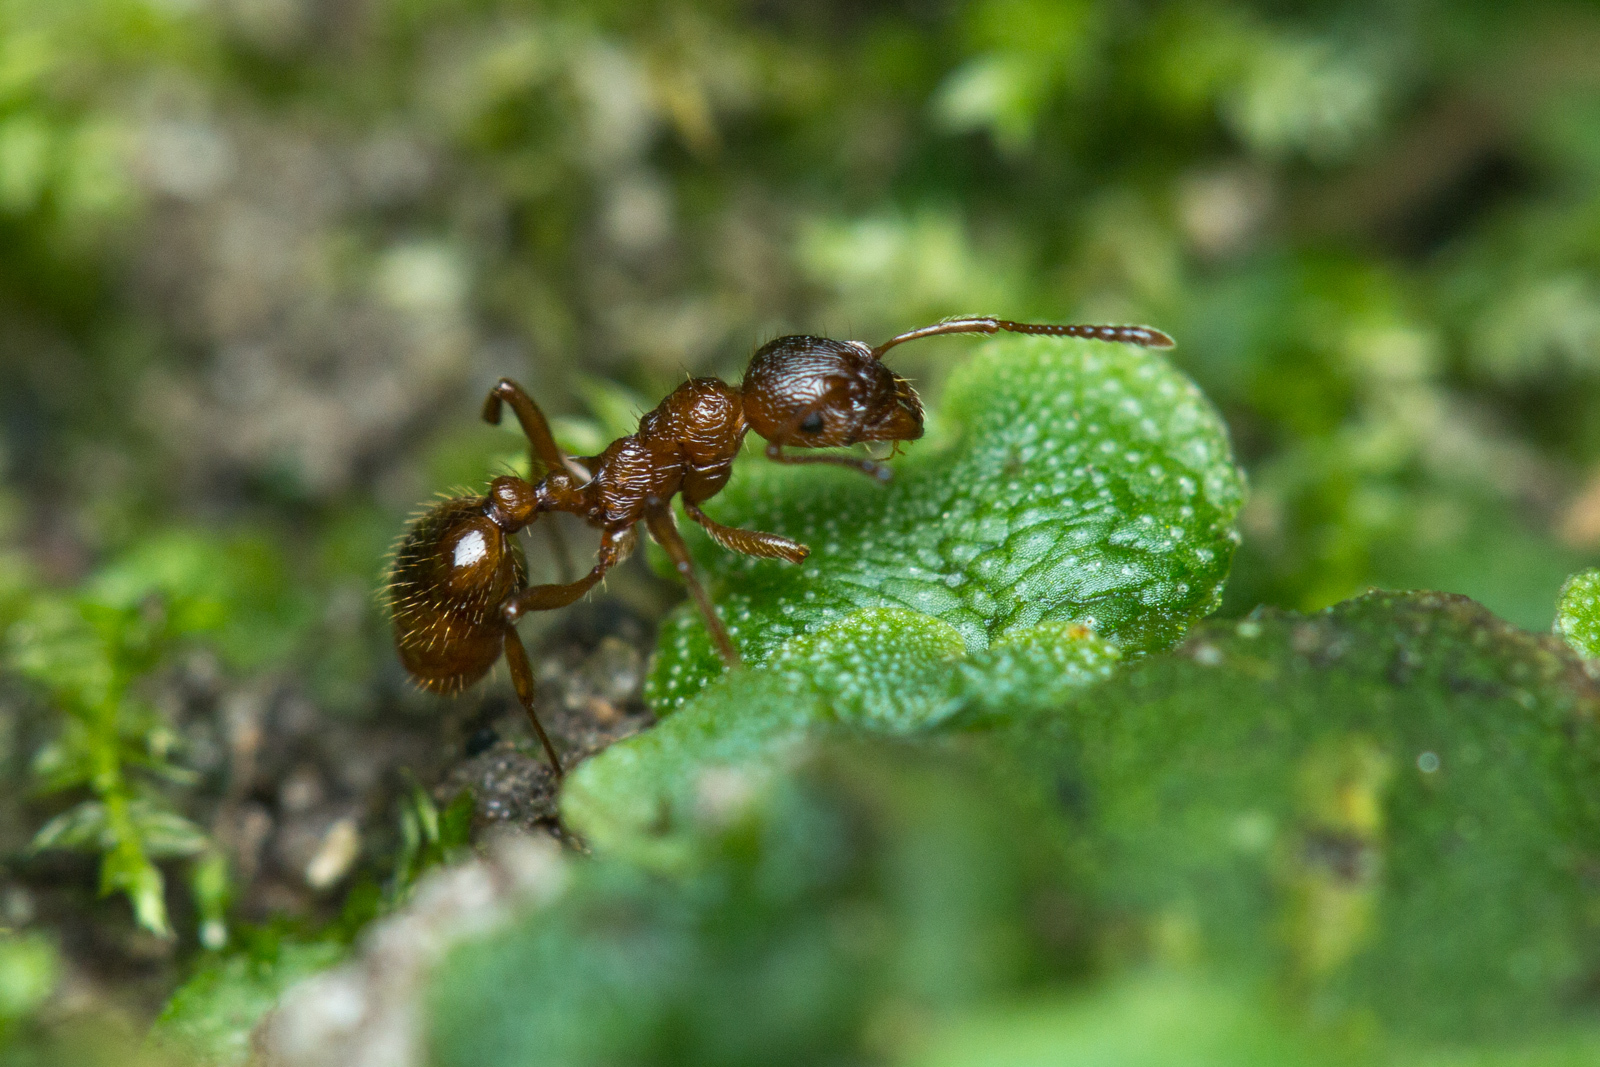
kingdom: Animalia
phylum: Arthropoda
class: Insecta
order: Hymenoptera
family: Formicidae
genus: Myrmica
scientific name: Myrmica rubra
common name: European fire ant
